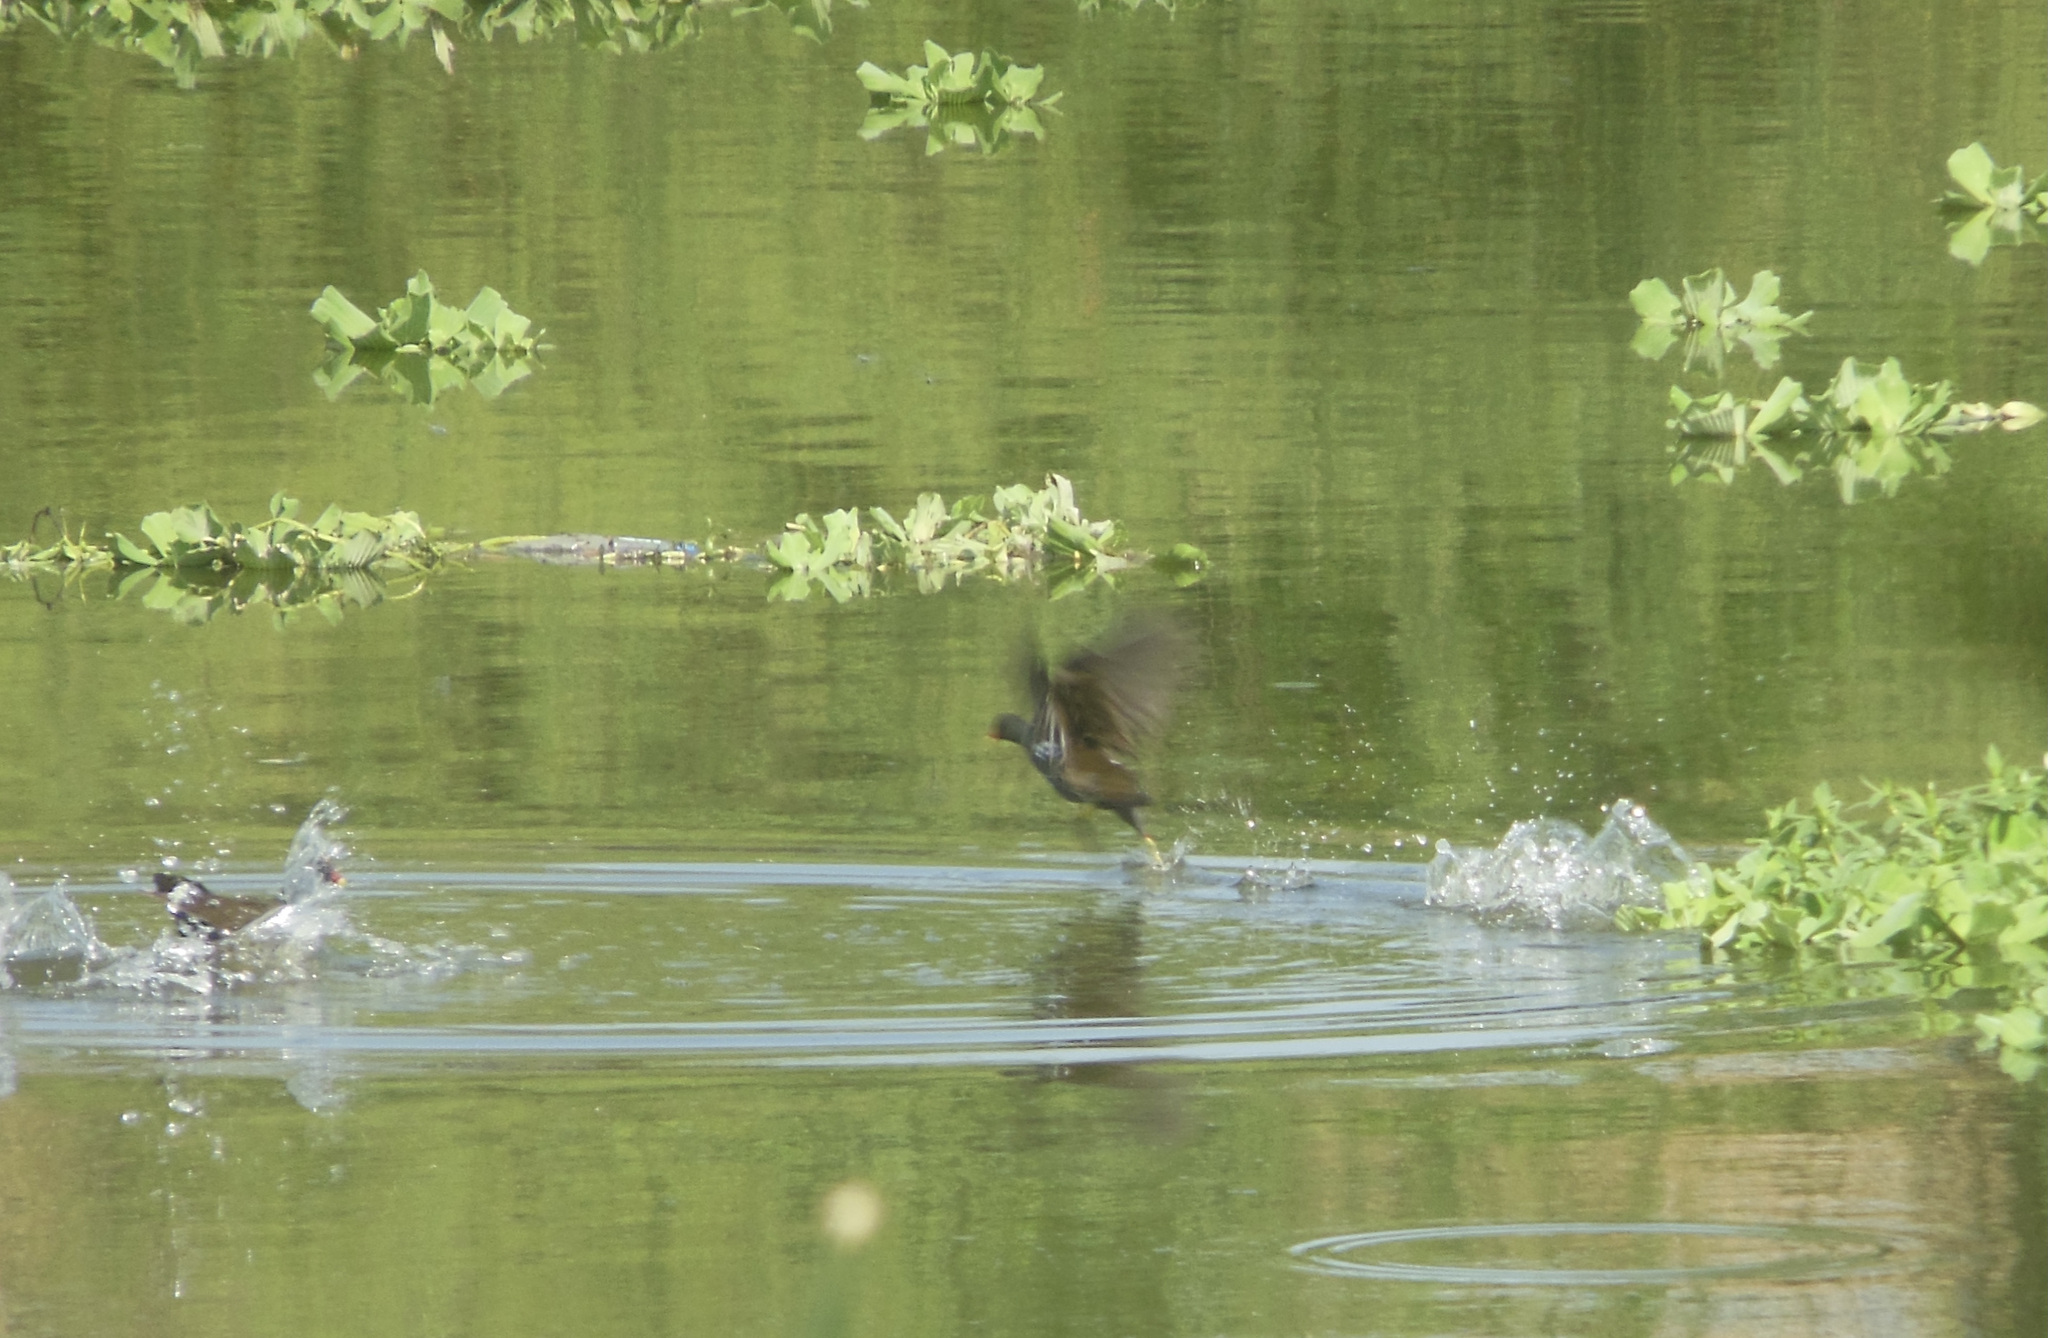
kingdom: Animalia
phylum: Chordata
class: Aves
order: Gruiformes
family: Rallidae
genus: Gallinula
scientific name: Gallinula chloropus
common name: Common moorhen
